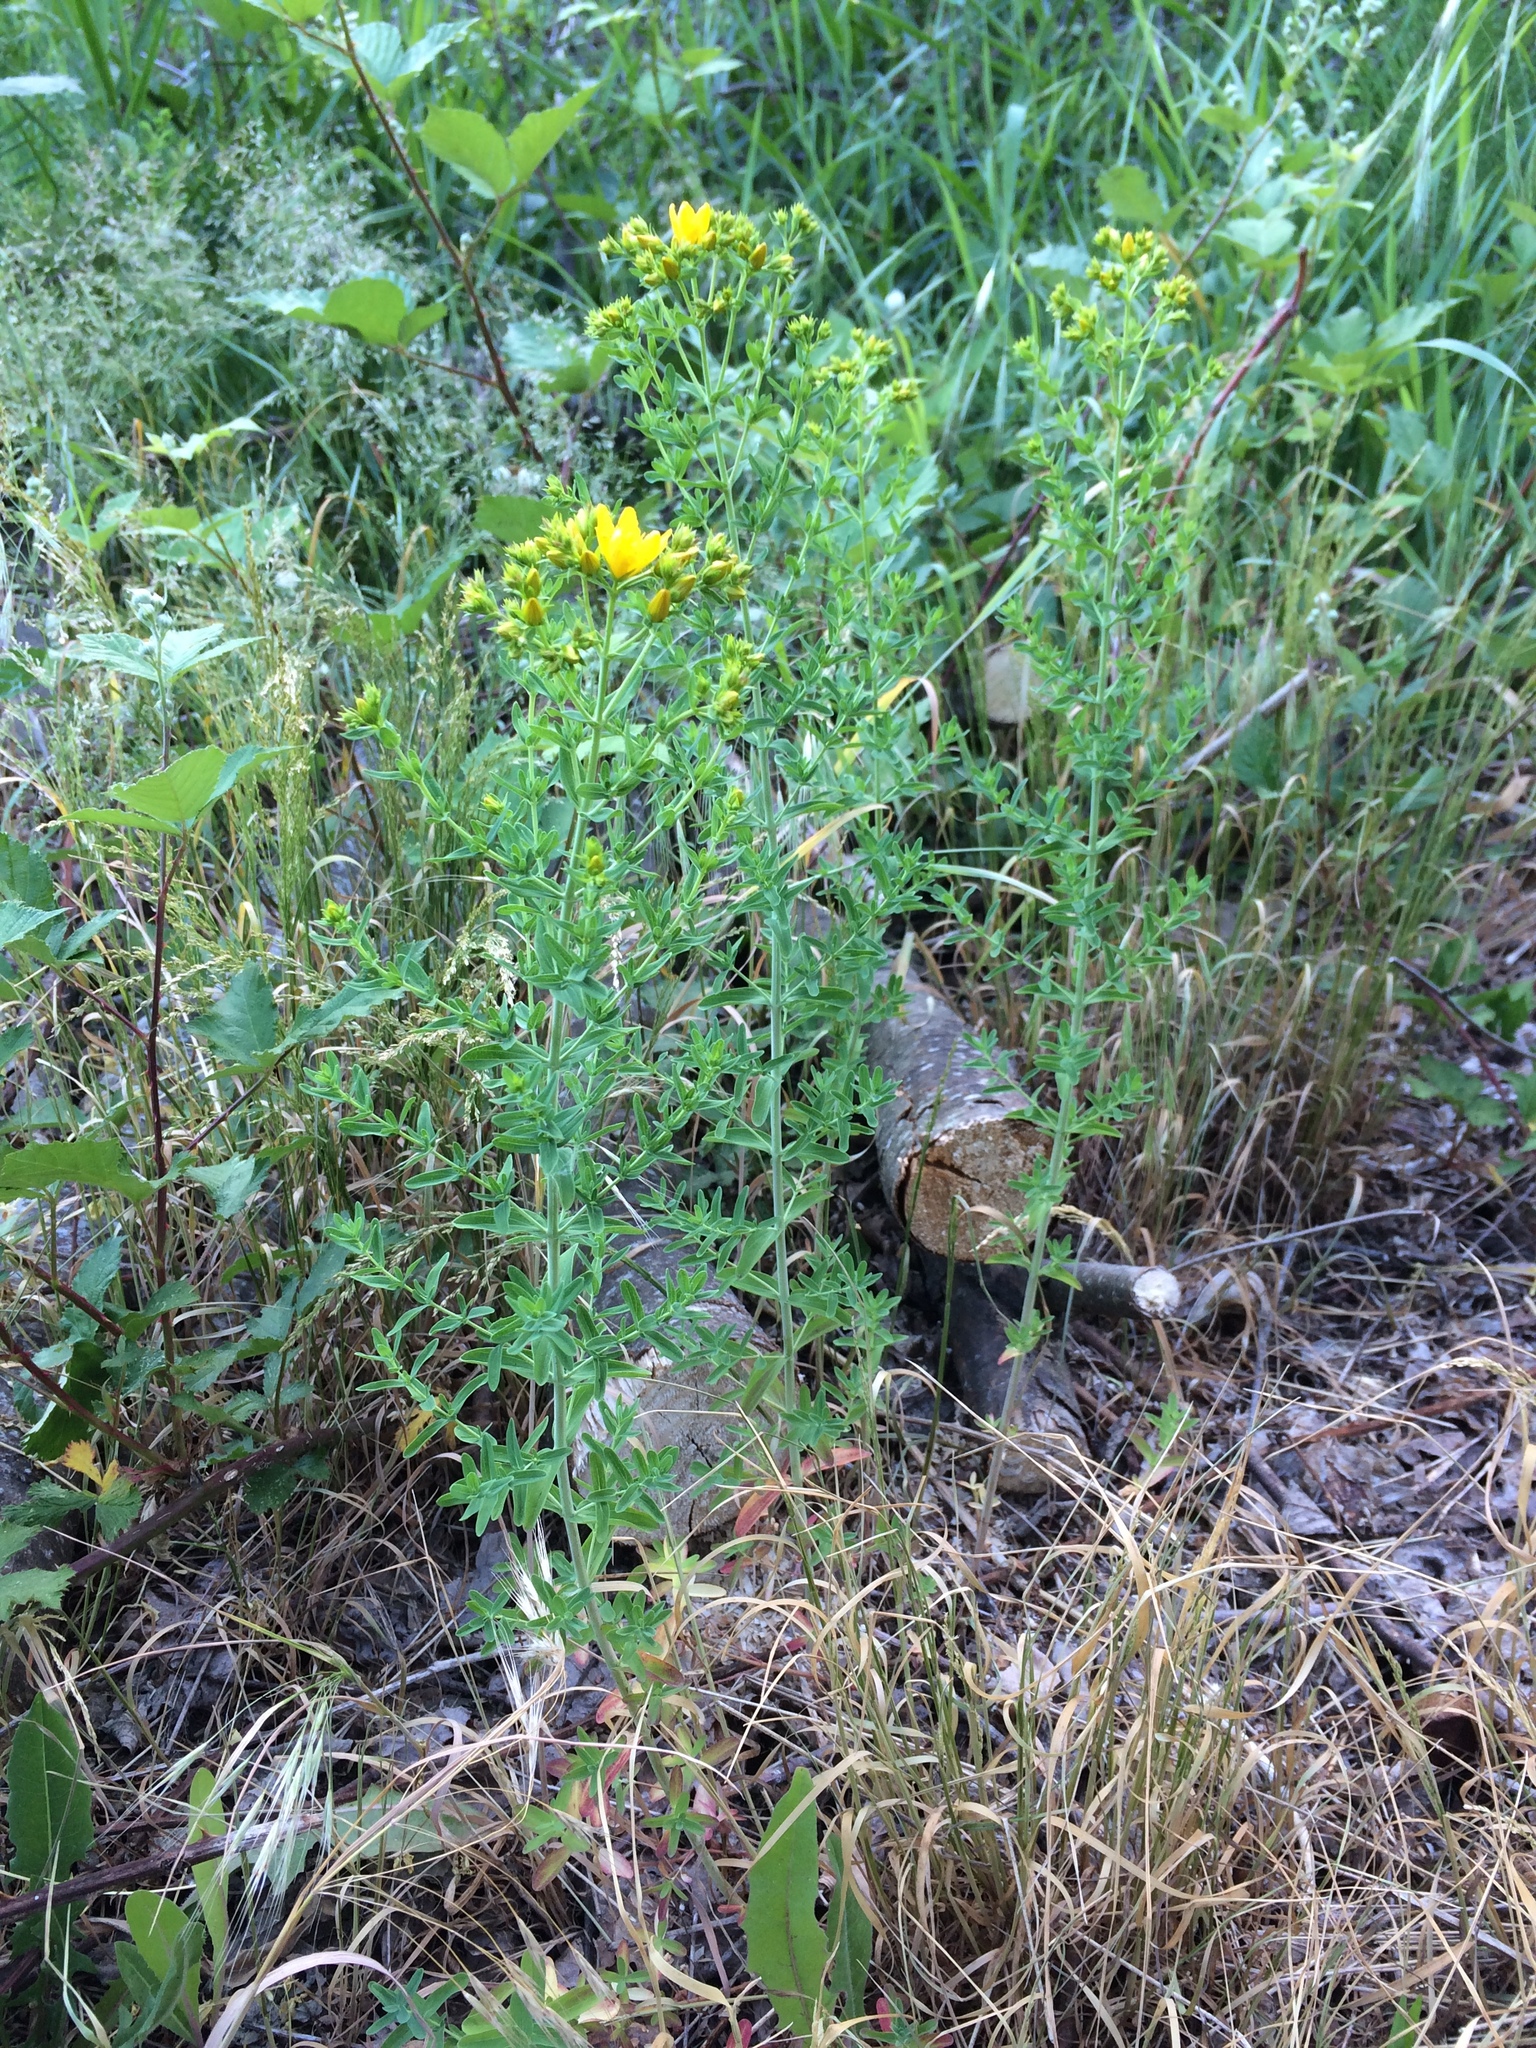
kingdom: Plantae
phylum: Tracheophyta
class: Magnoliopsida
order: Malpighiales
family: Hypericaceae
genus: Hypericum
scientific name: Hypericum perforatum
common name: Common st. johnswort
